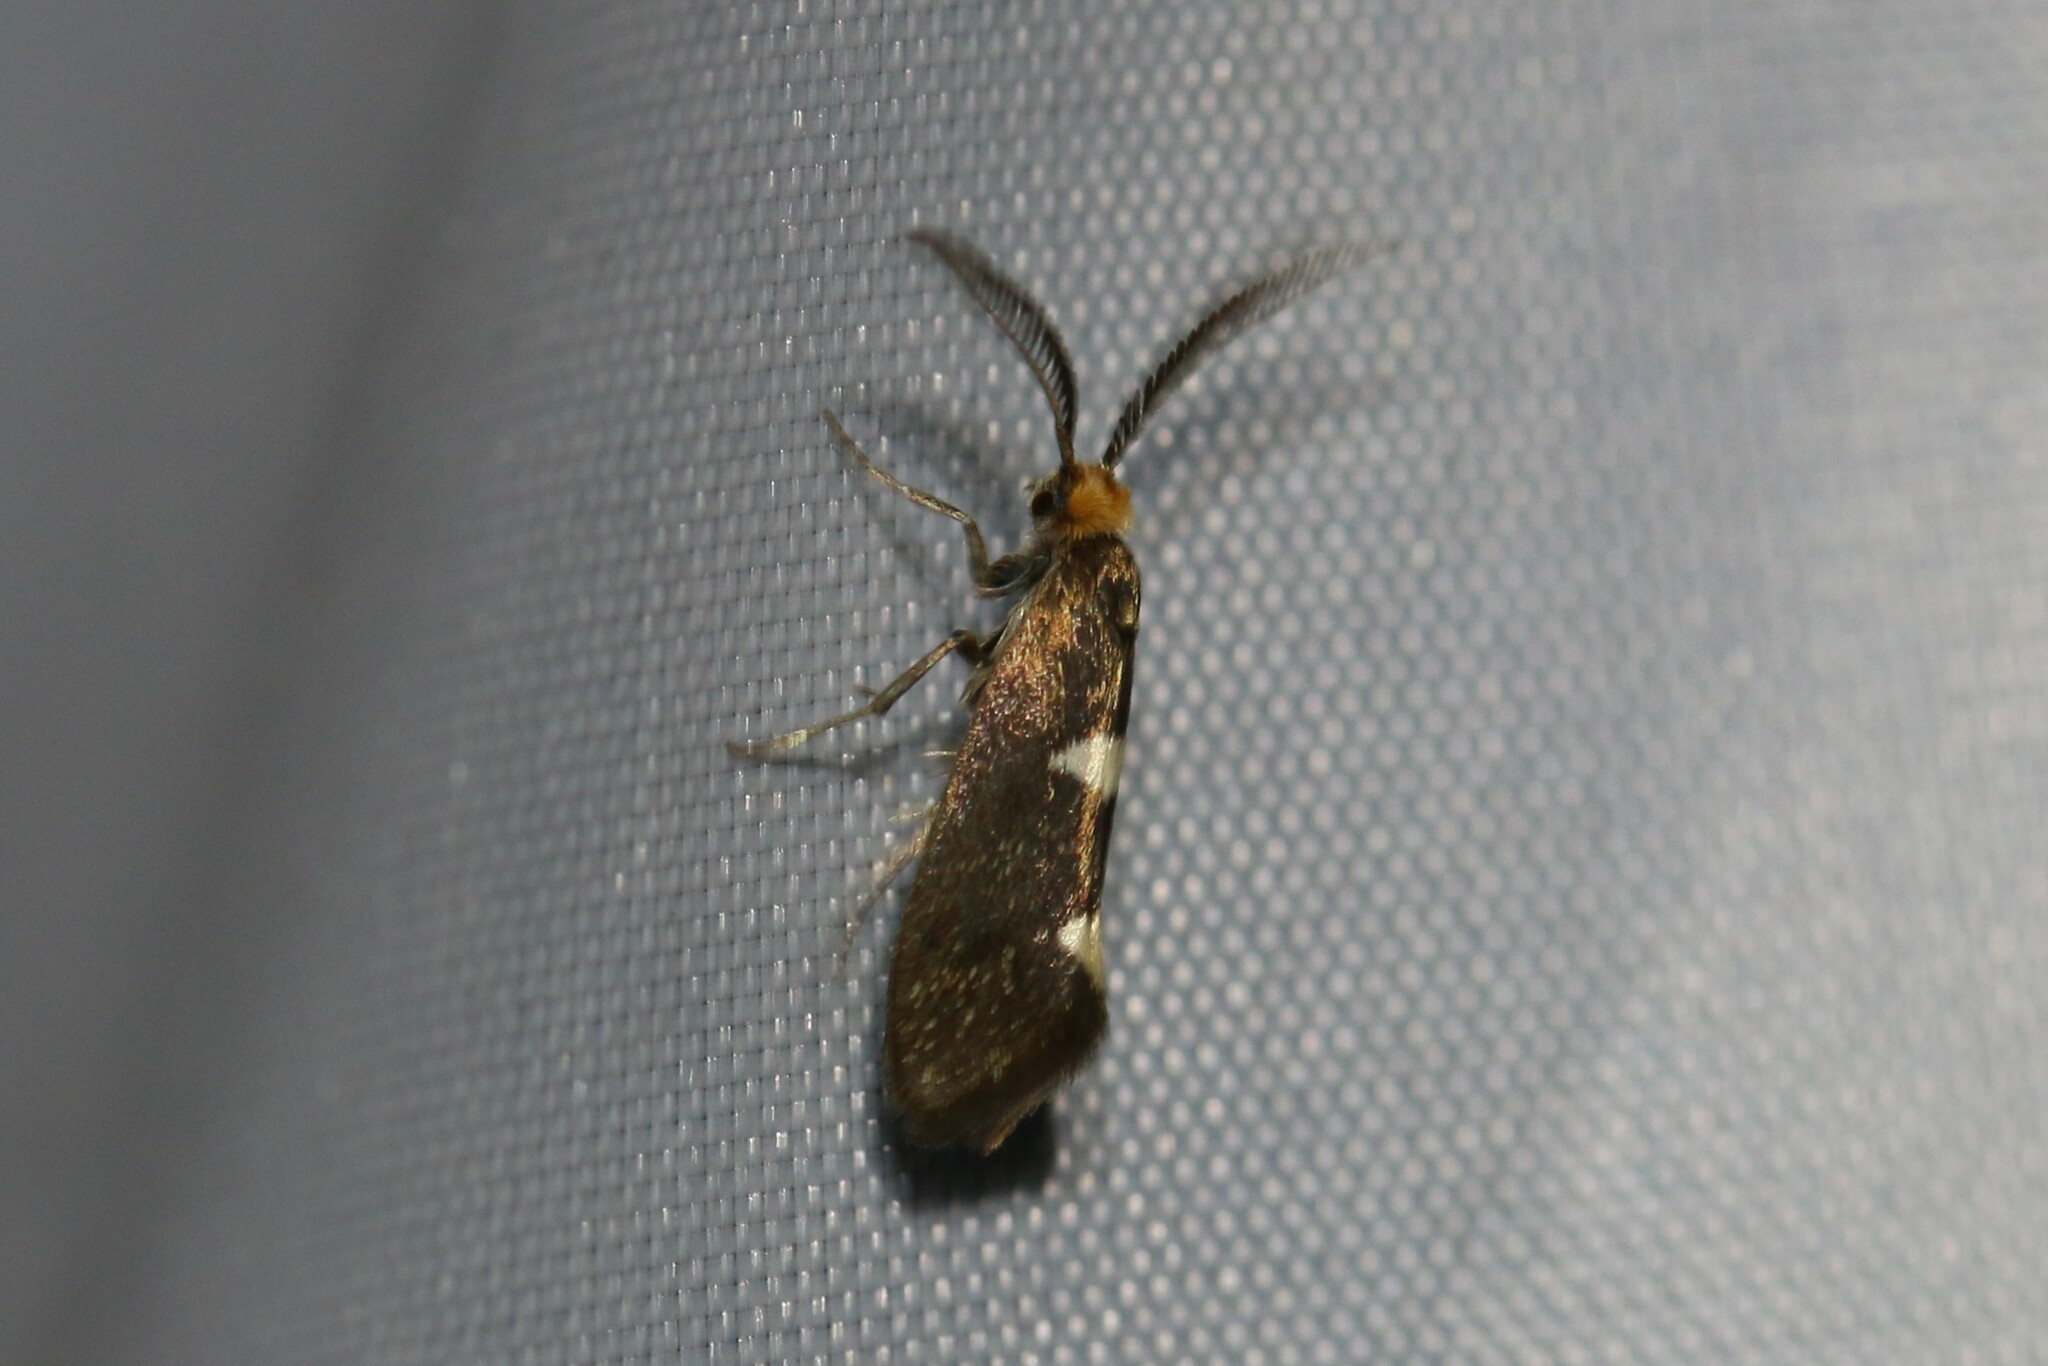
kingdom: Animalia
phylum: Arthropoda
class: Insecta
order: Lepidoptera
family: Incurvariidae
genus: Incurvaria
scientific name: Incurvaria masculella
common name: Feathered leaf-cutter
